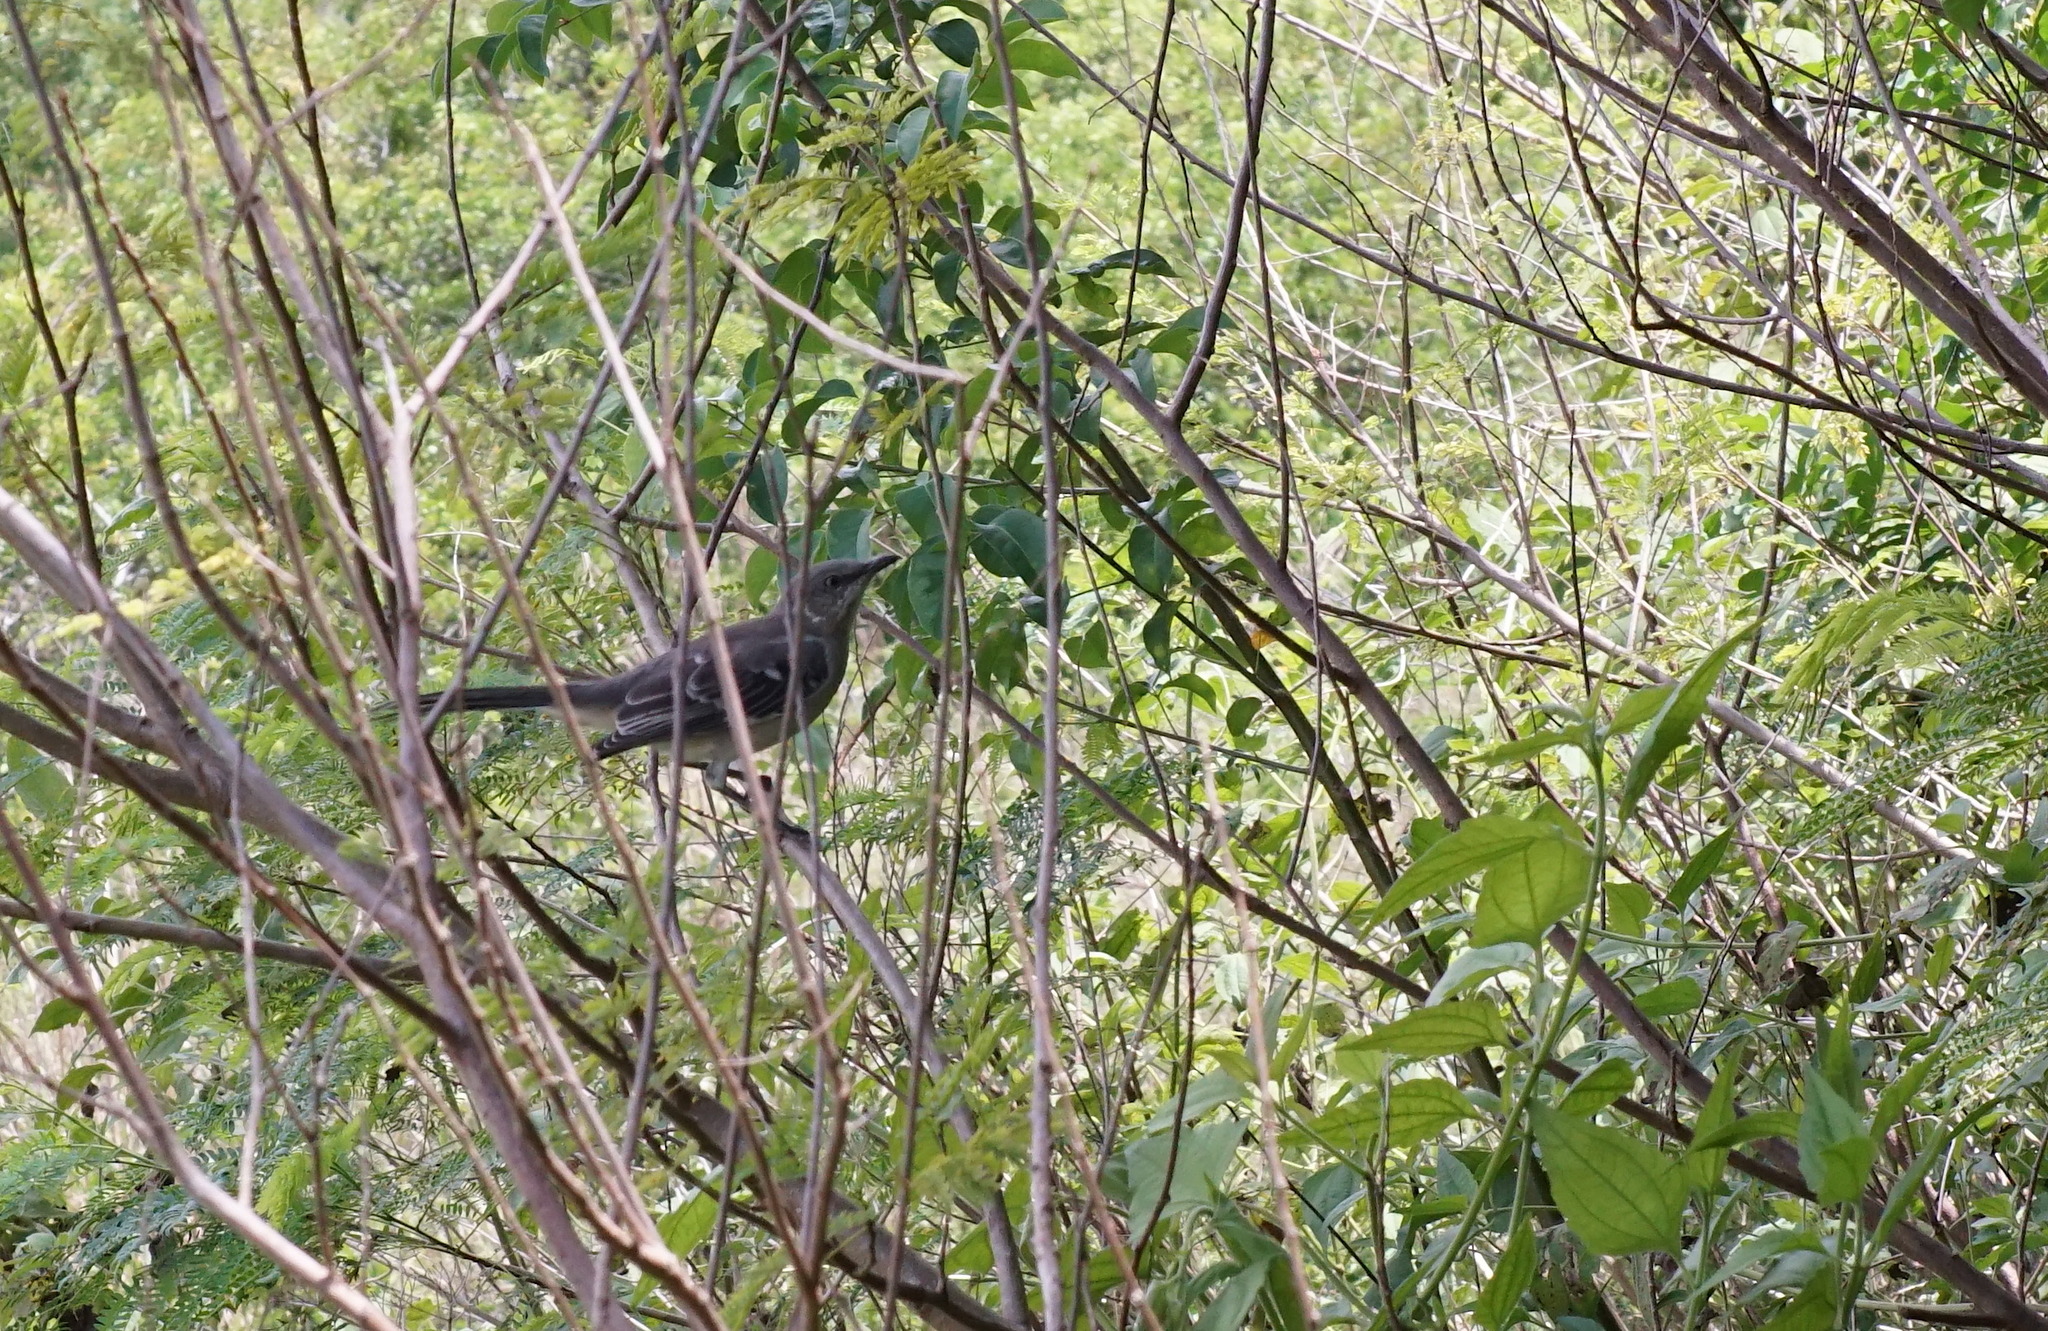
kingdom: Animalia
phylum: Chordata
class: Aves
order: Passeriformes
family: Mimidae
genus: Mimus
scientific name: Mimus polyglottos
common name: Northern mockingbird
